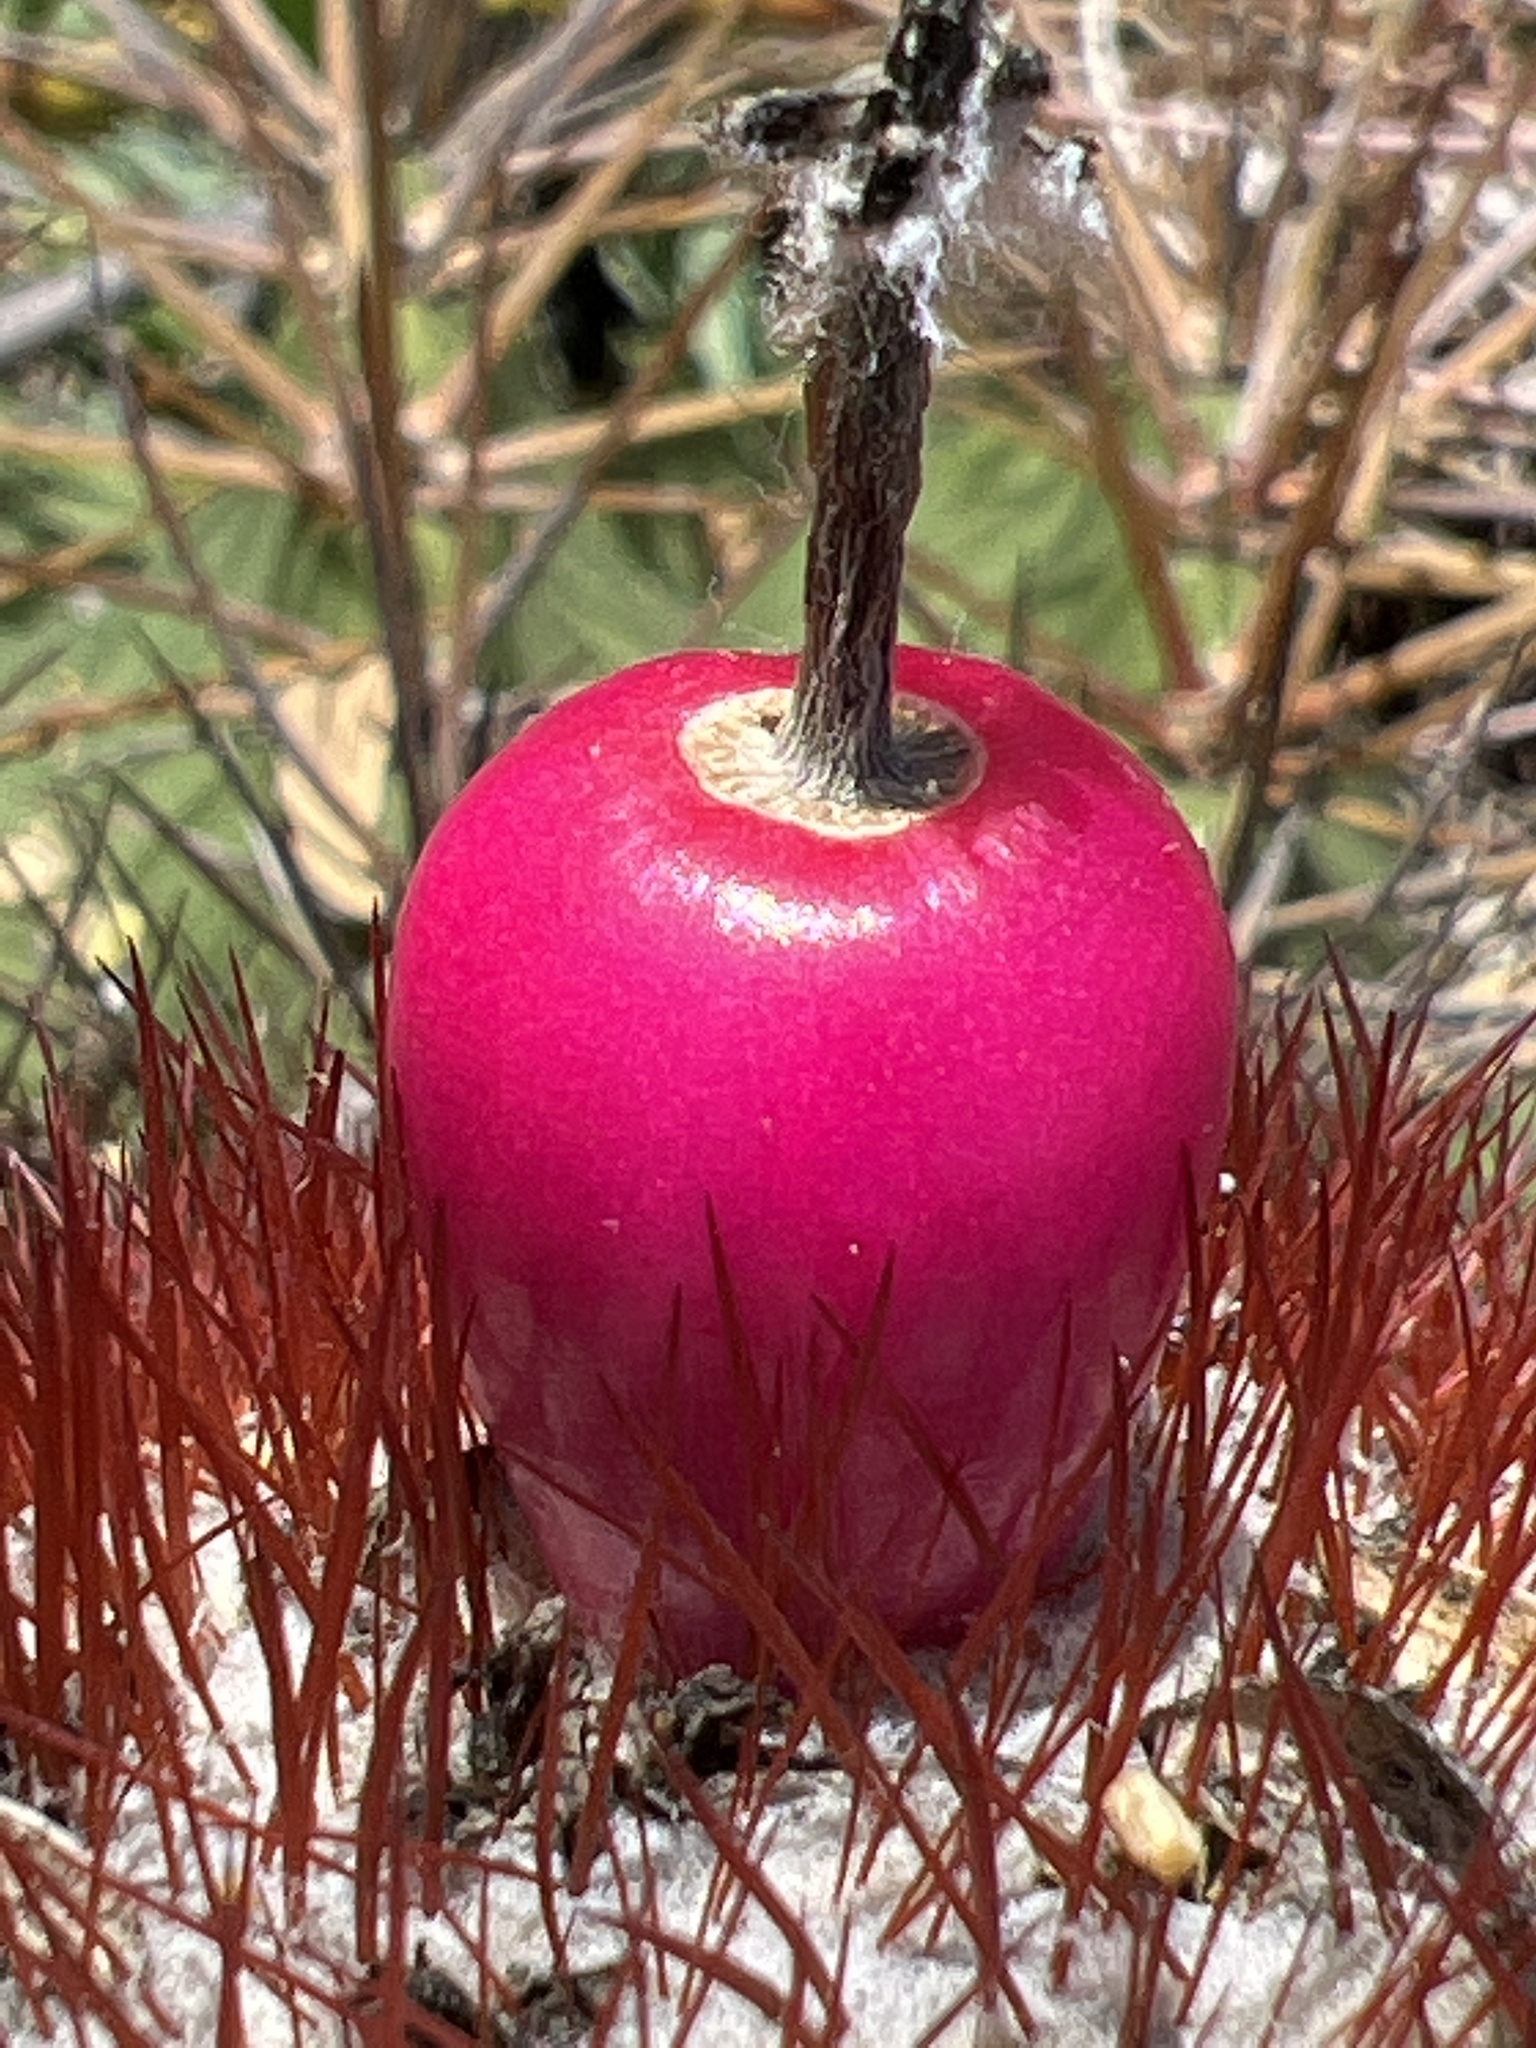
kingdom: Plantae
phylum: Tracheophyta
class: Magnoliopsida
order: Caryophyllales
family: Cactaceae
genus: Melocactus
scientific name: Melocactus intortus
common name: Barrel cactus
